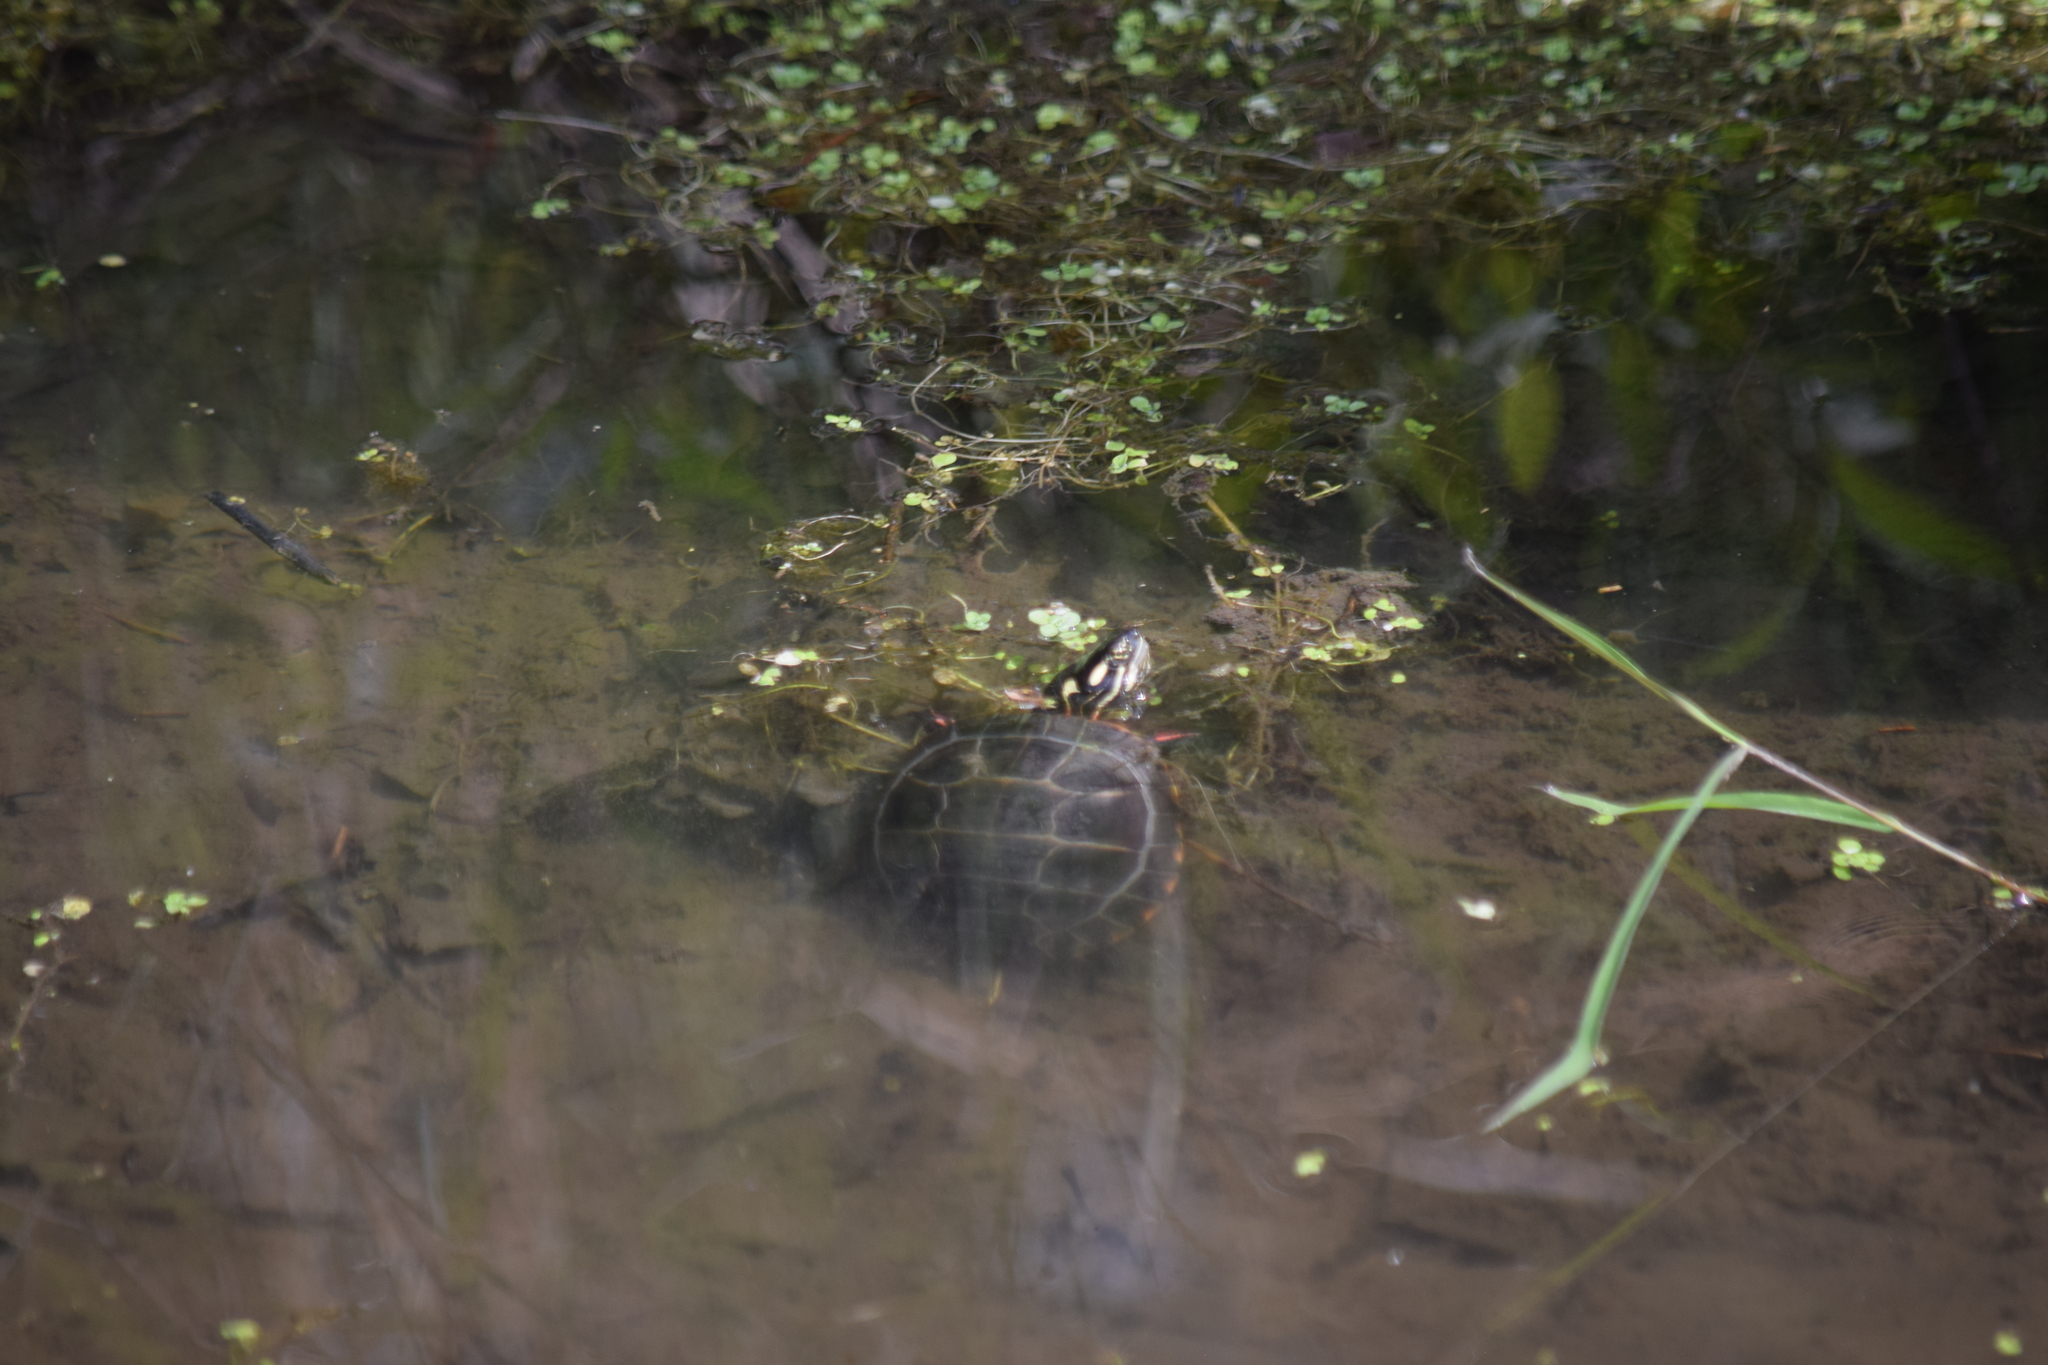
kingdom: Animalia
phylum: Chordata
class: Testudines
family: Emydidae
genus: Chrysemys
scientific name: Chrysemys picta
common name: Painted turtle
